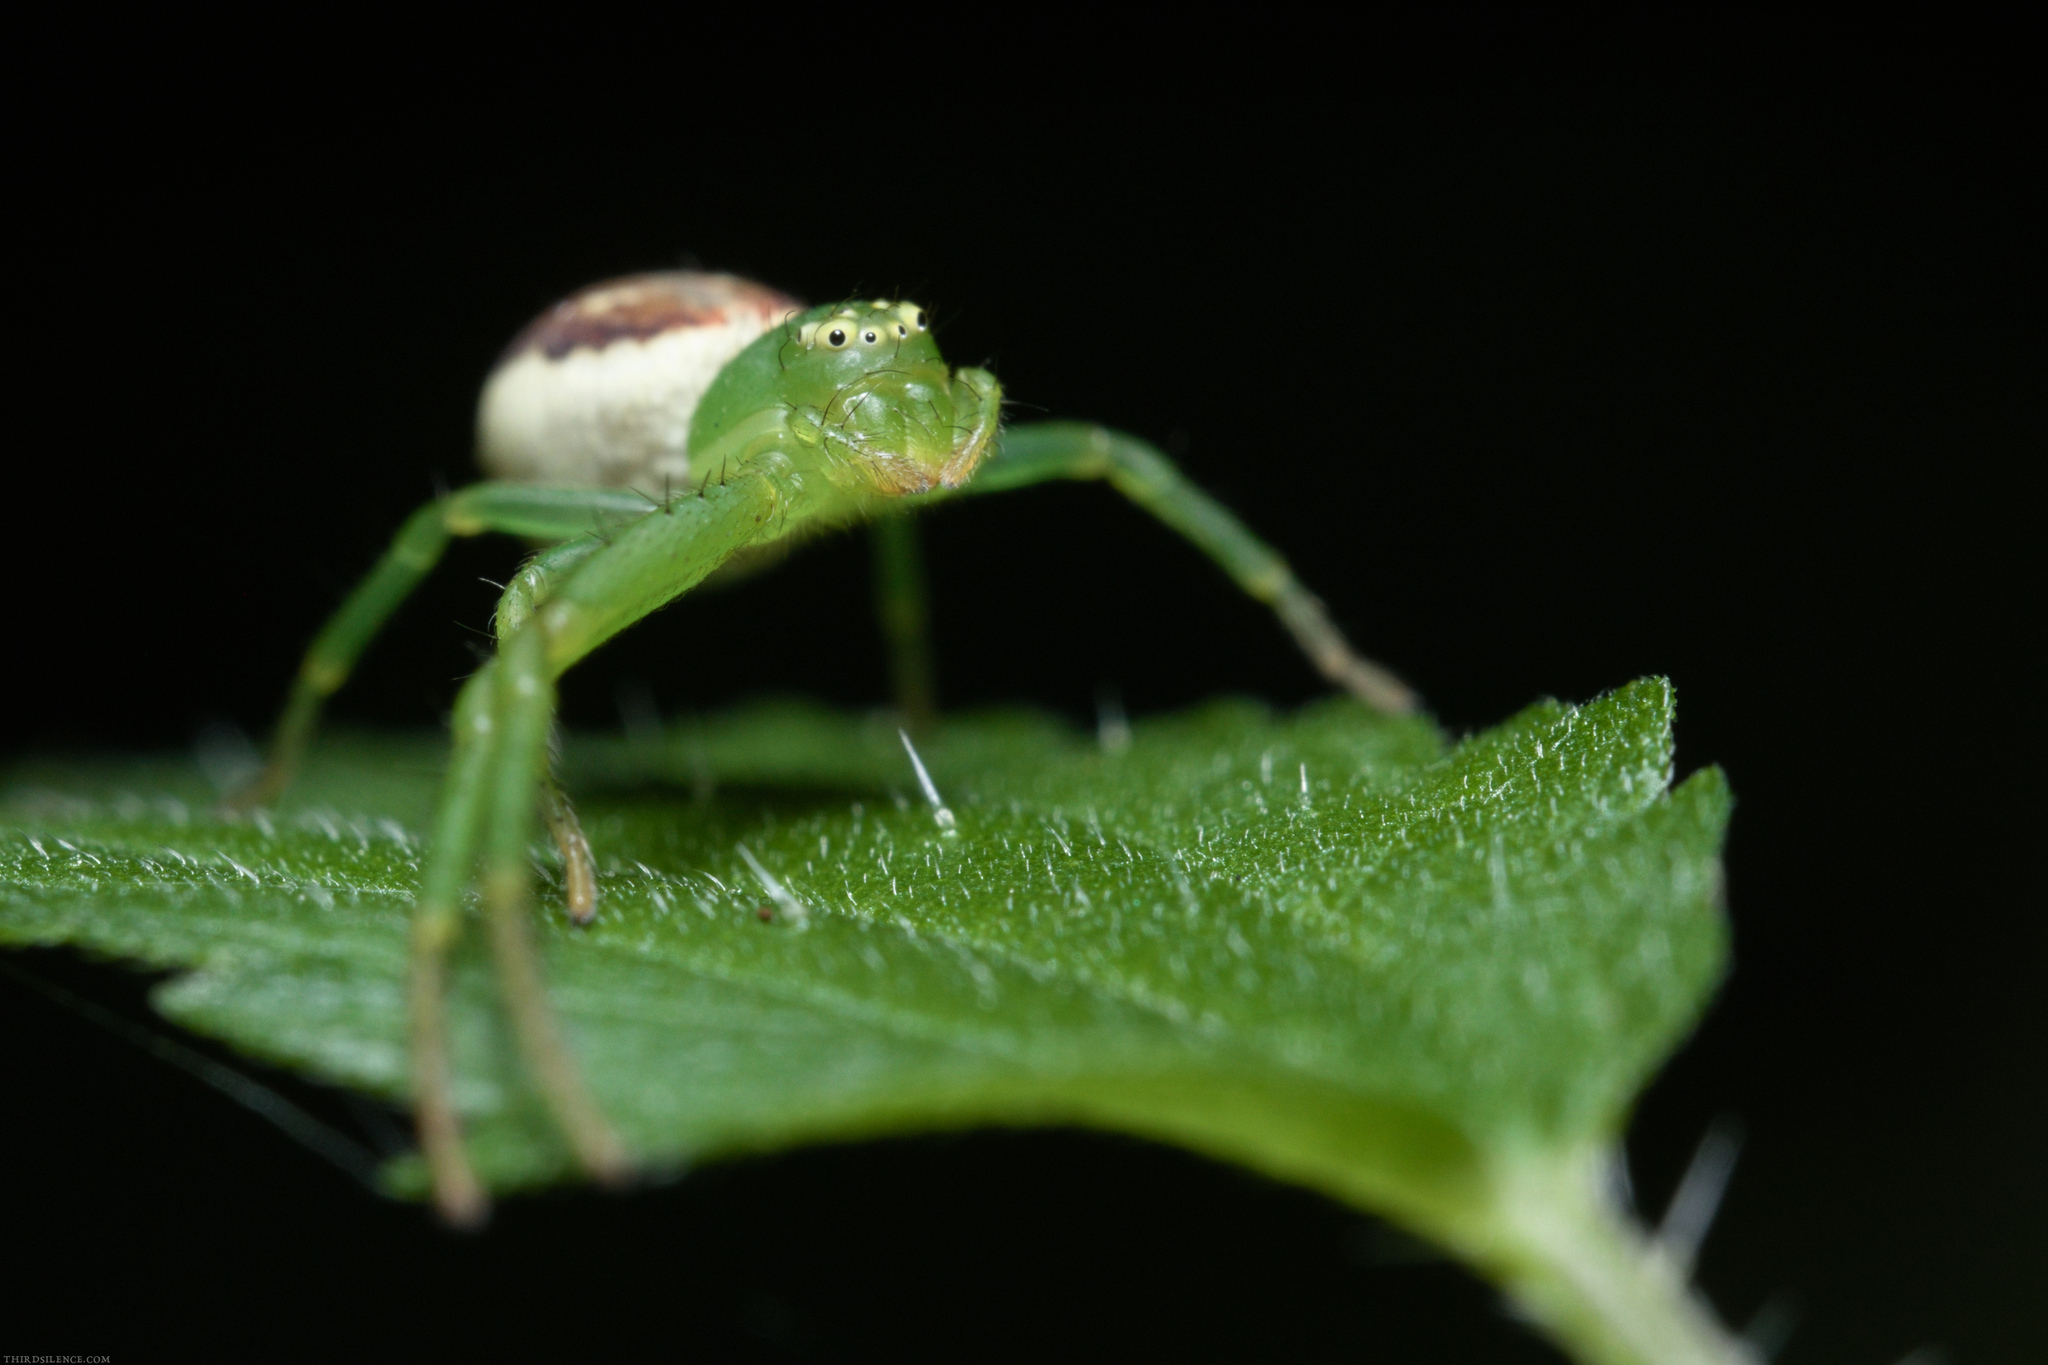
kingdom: Animalia
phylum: Arthropoda
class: Arachnida
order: Araneae
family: Thomisidae
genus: Diaea
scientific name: Diaea dorsata
